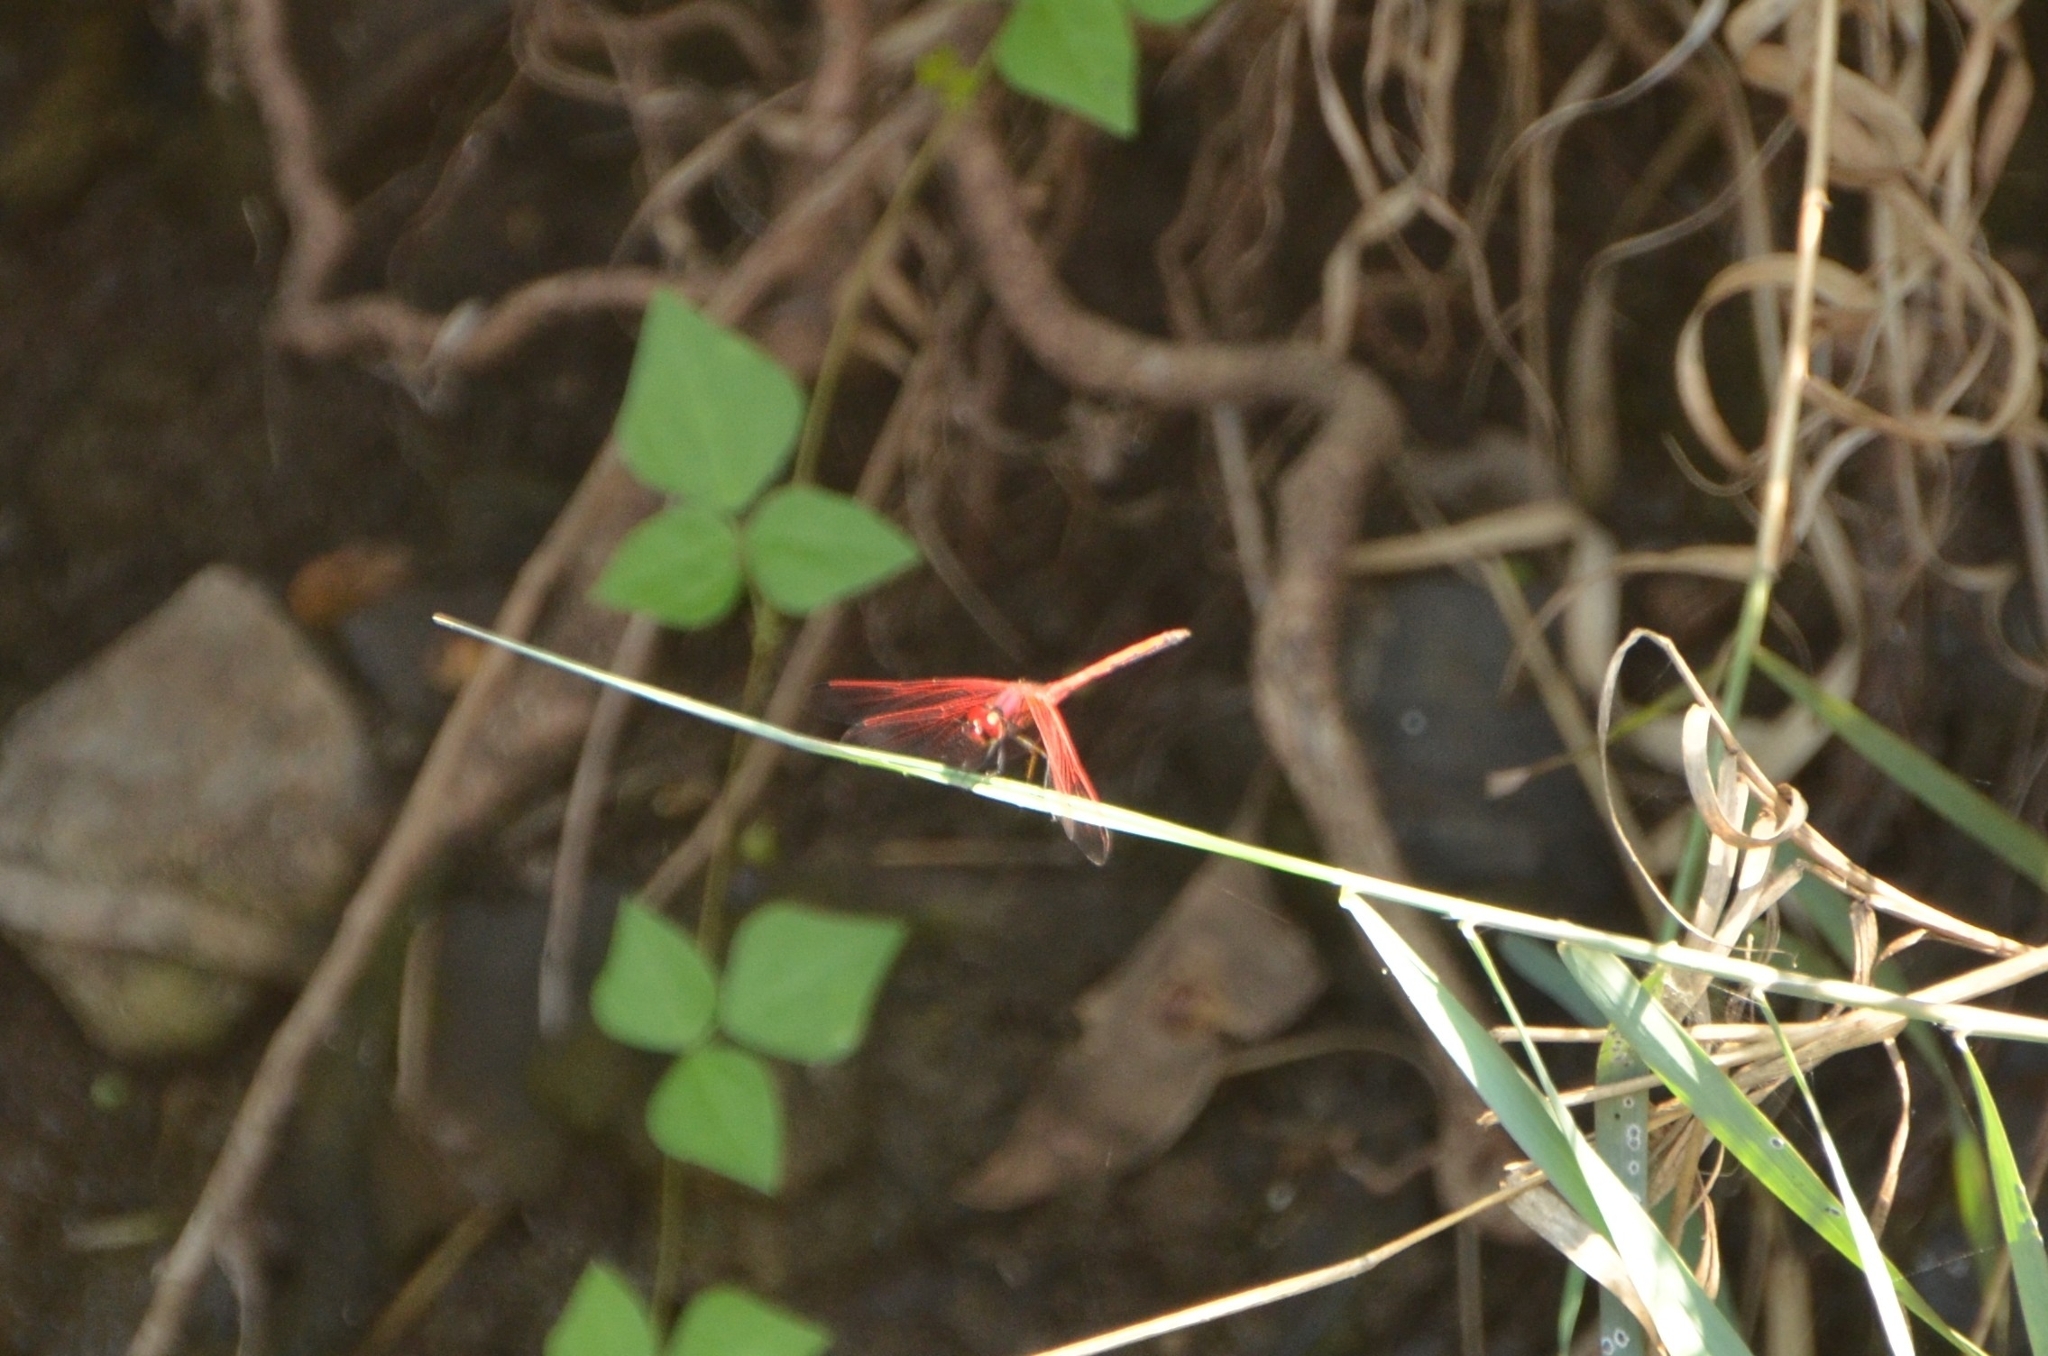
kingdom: Animalia
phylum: Arthropoda
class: Insecta
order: Odonata
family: Libellulidae
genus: Trithemis
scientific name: Trithemis arteriosa
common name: Red-veined dropwing
